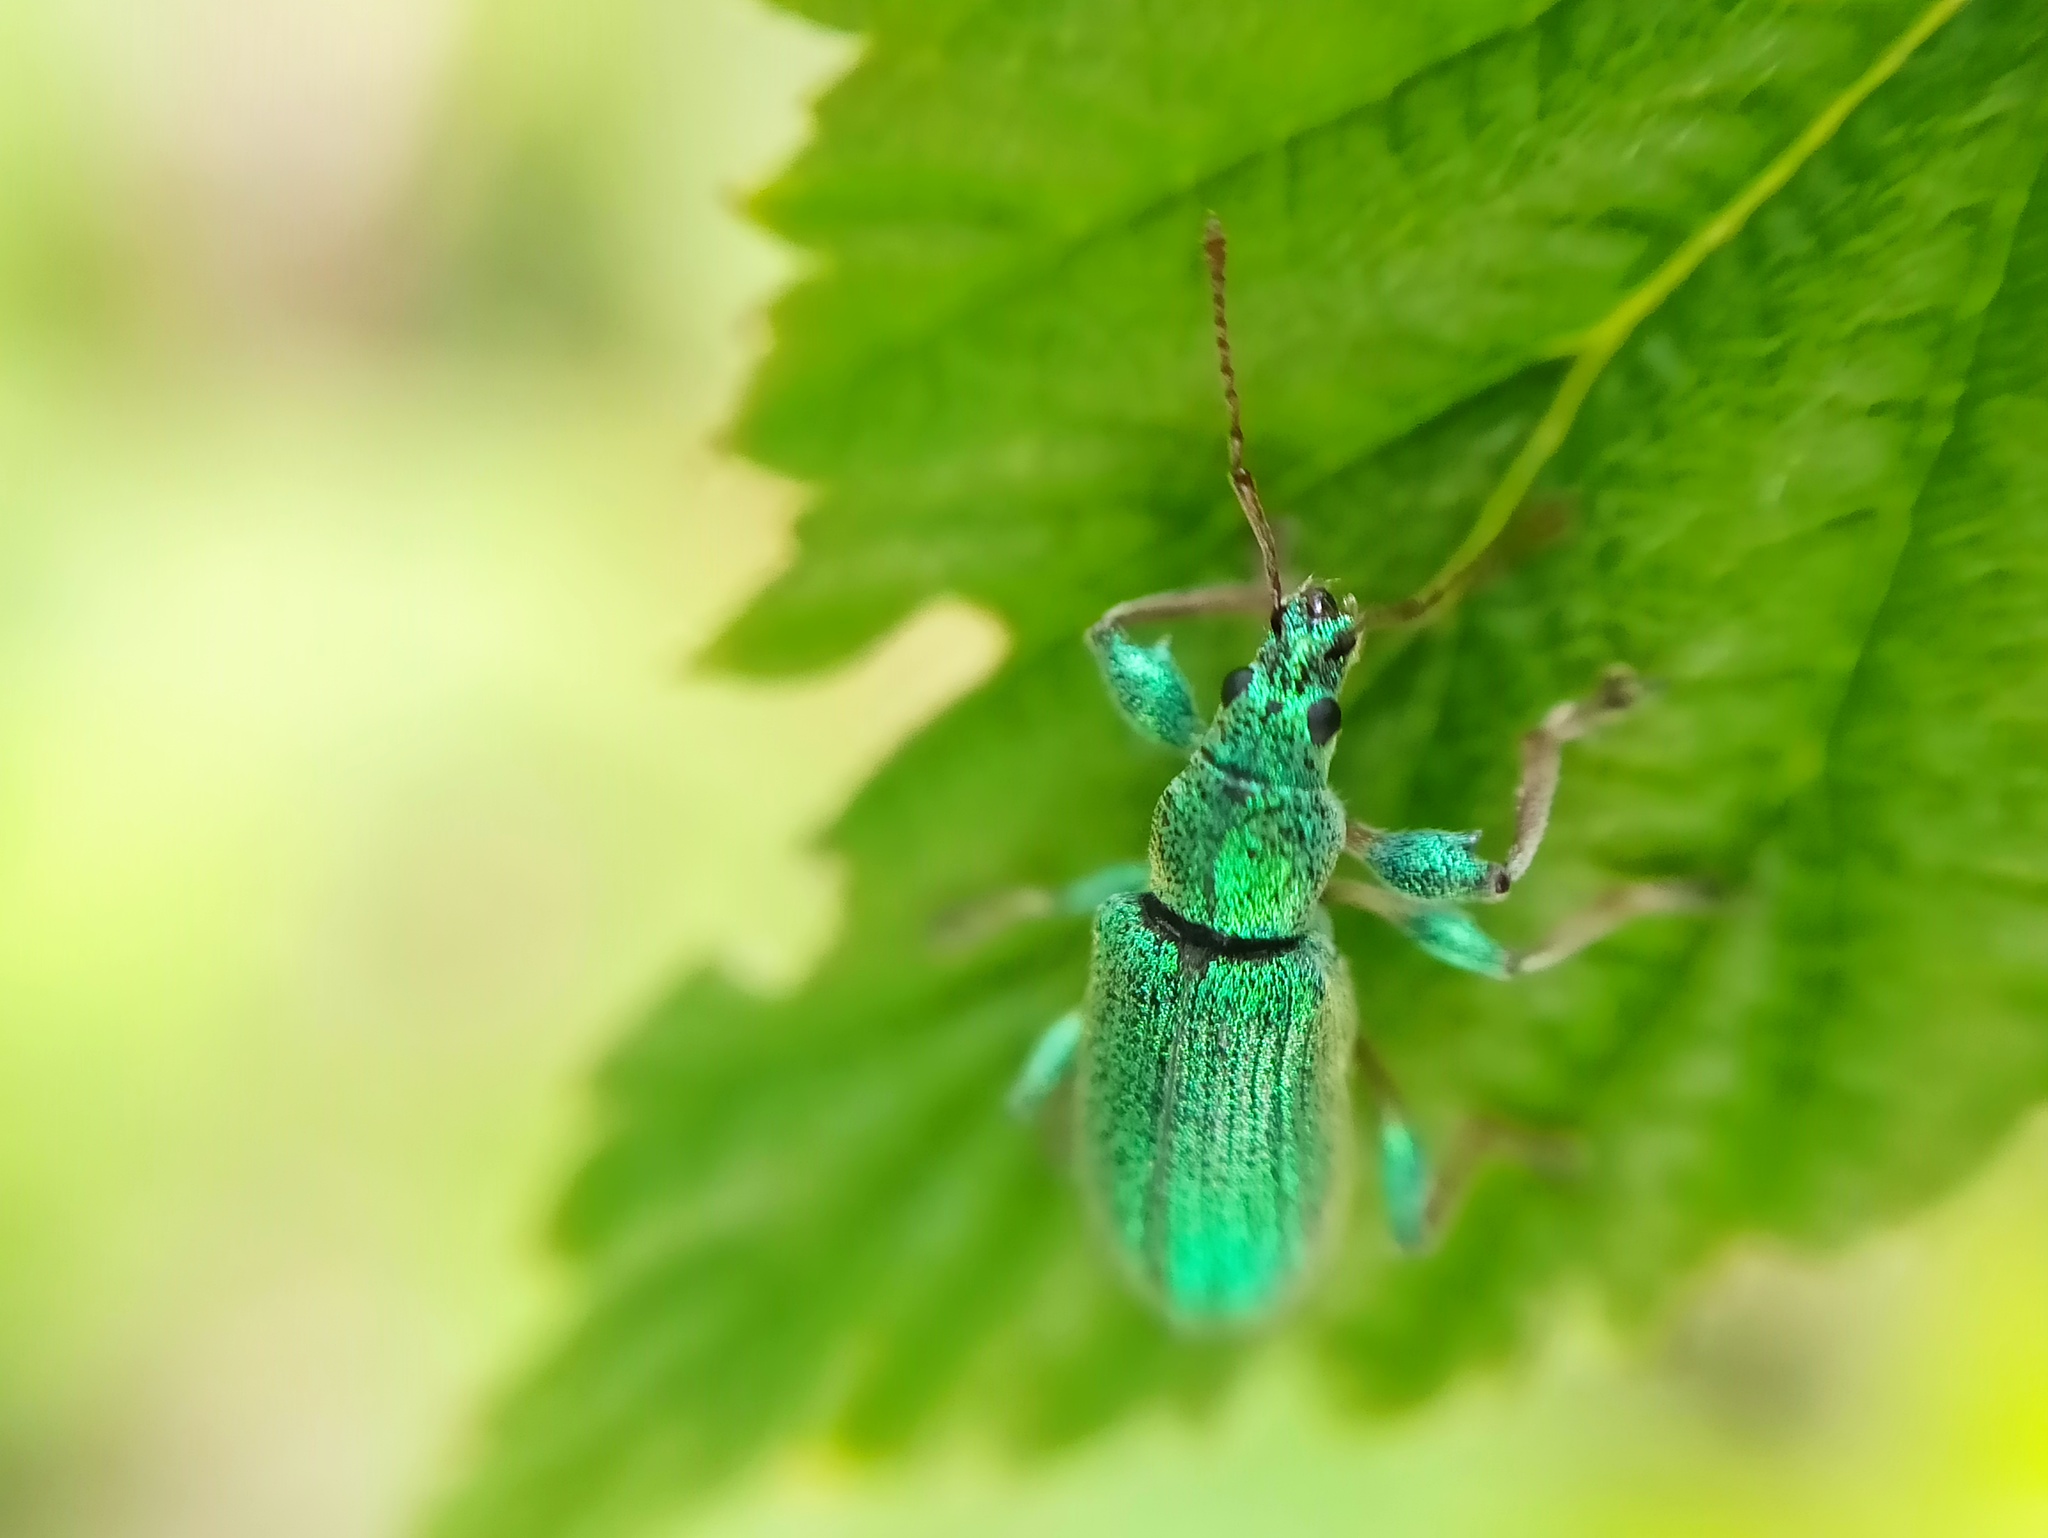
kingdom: Animalia
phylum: Arthropoda
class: Insecta
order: Coleoptera
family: Curculionidae
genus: Phyllobius
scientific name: Phyllobius arborator
